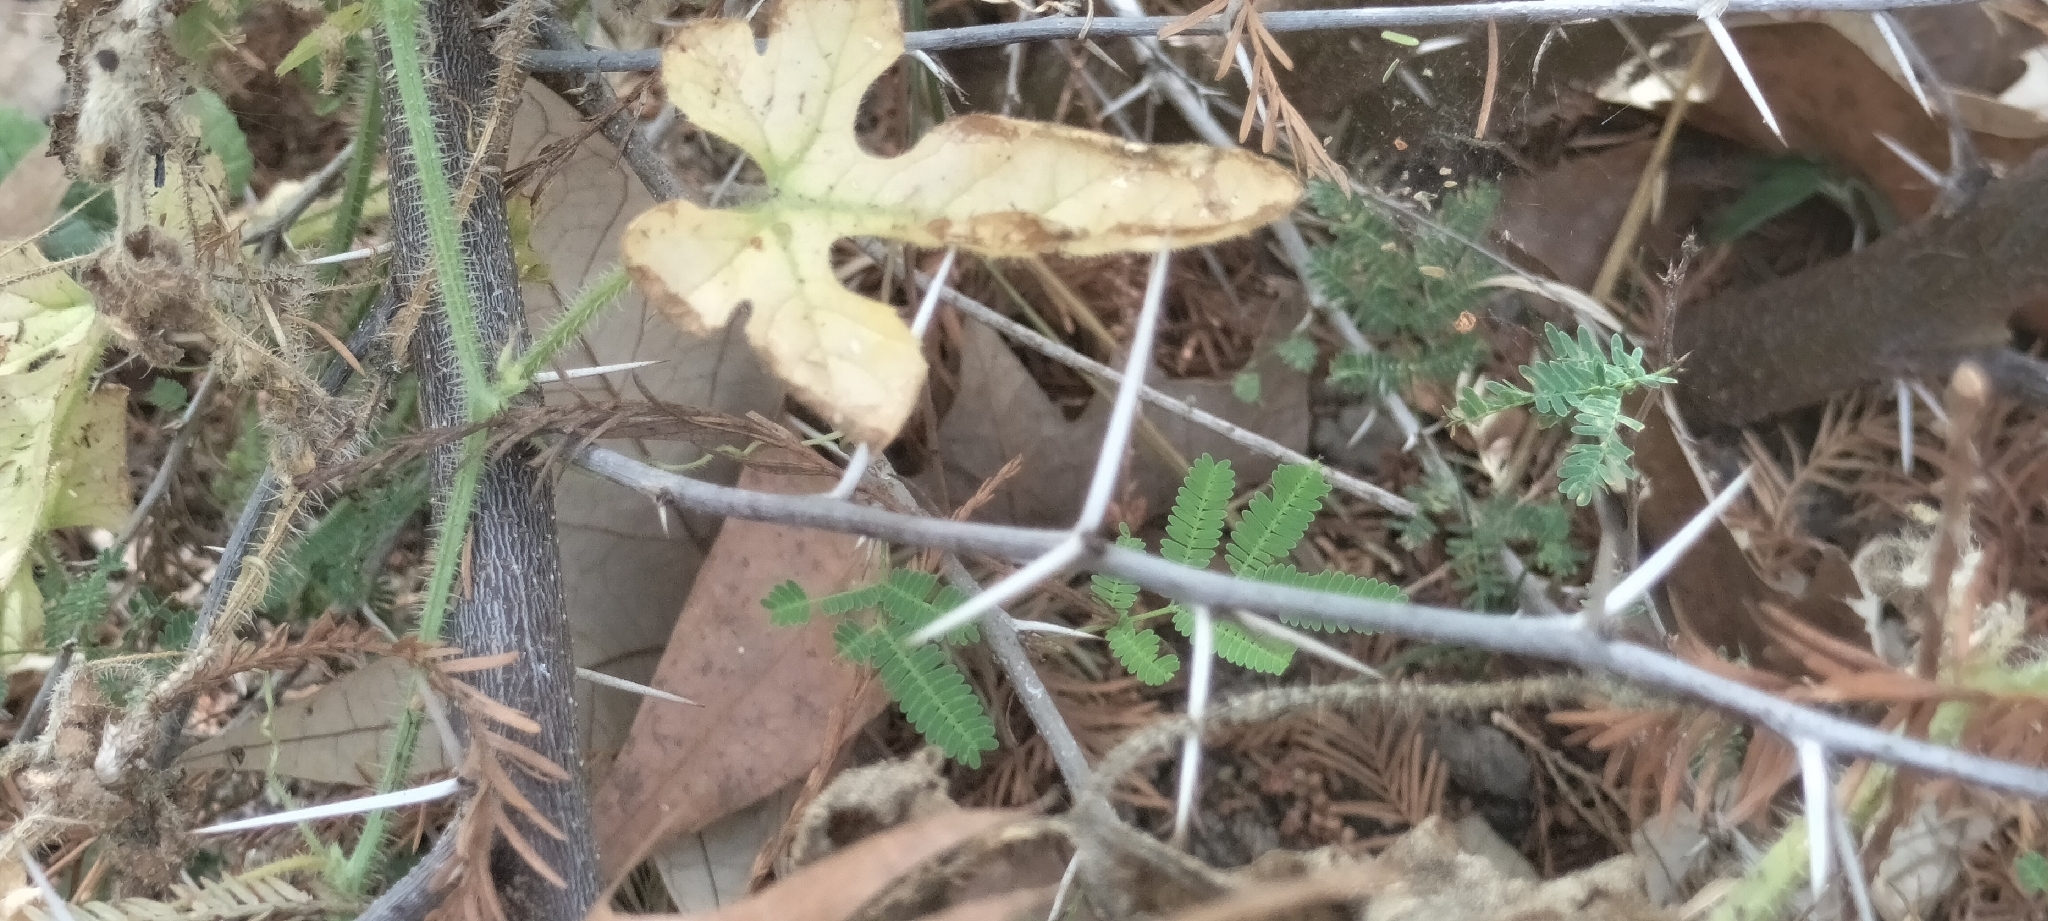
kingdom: Plantae
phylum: Tracheophyta
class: Magnoliopsida
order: Cucurbitales
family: Cucurbitaceae
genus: Cucumis
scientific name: Cucumis anguria
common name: West indian gherkin
